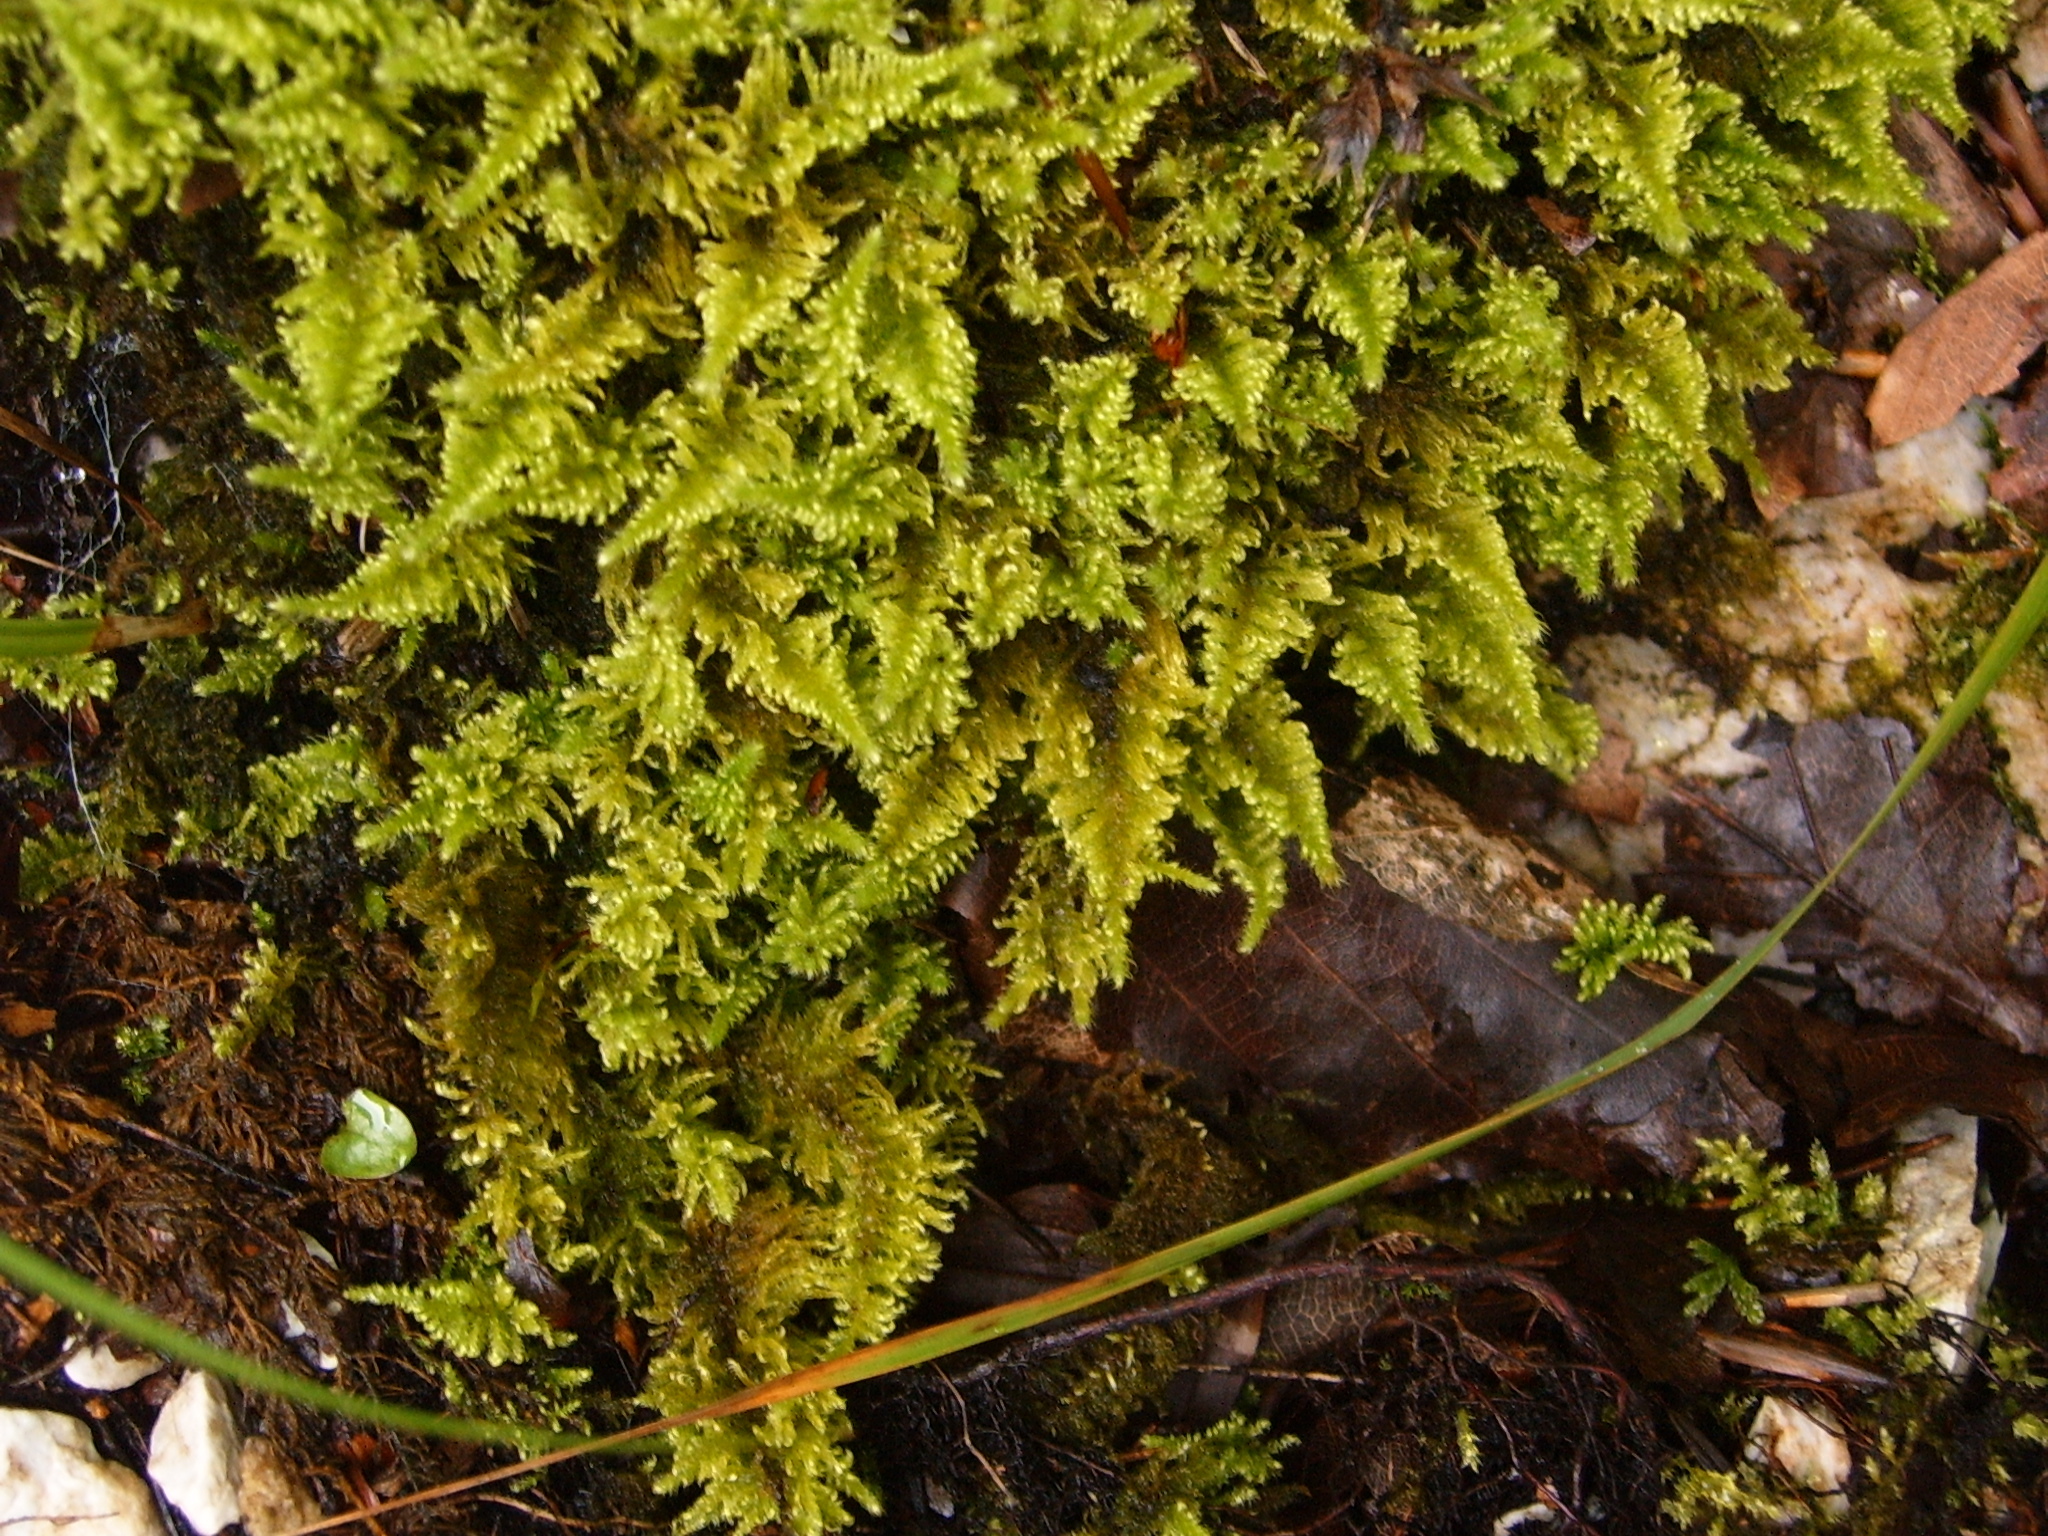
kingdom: Plantae
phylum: Bryophyta
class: Bryopsida
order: Hypnales
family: Myuriaceae
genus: Ctenidium
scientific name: Ctenidium molluscum
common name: Chalk comb-moss
